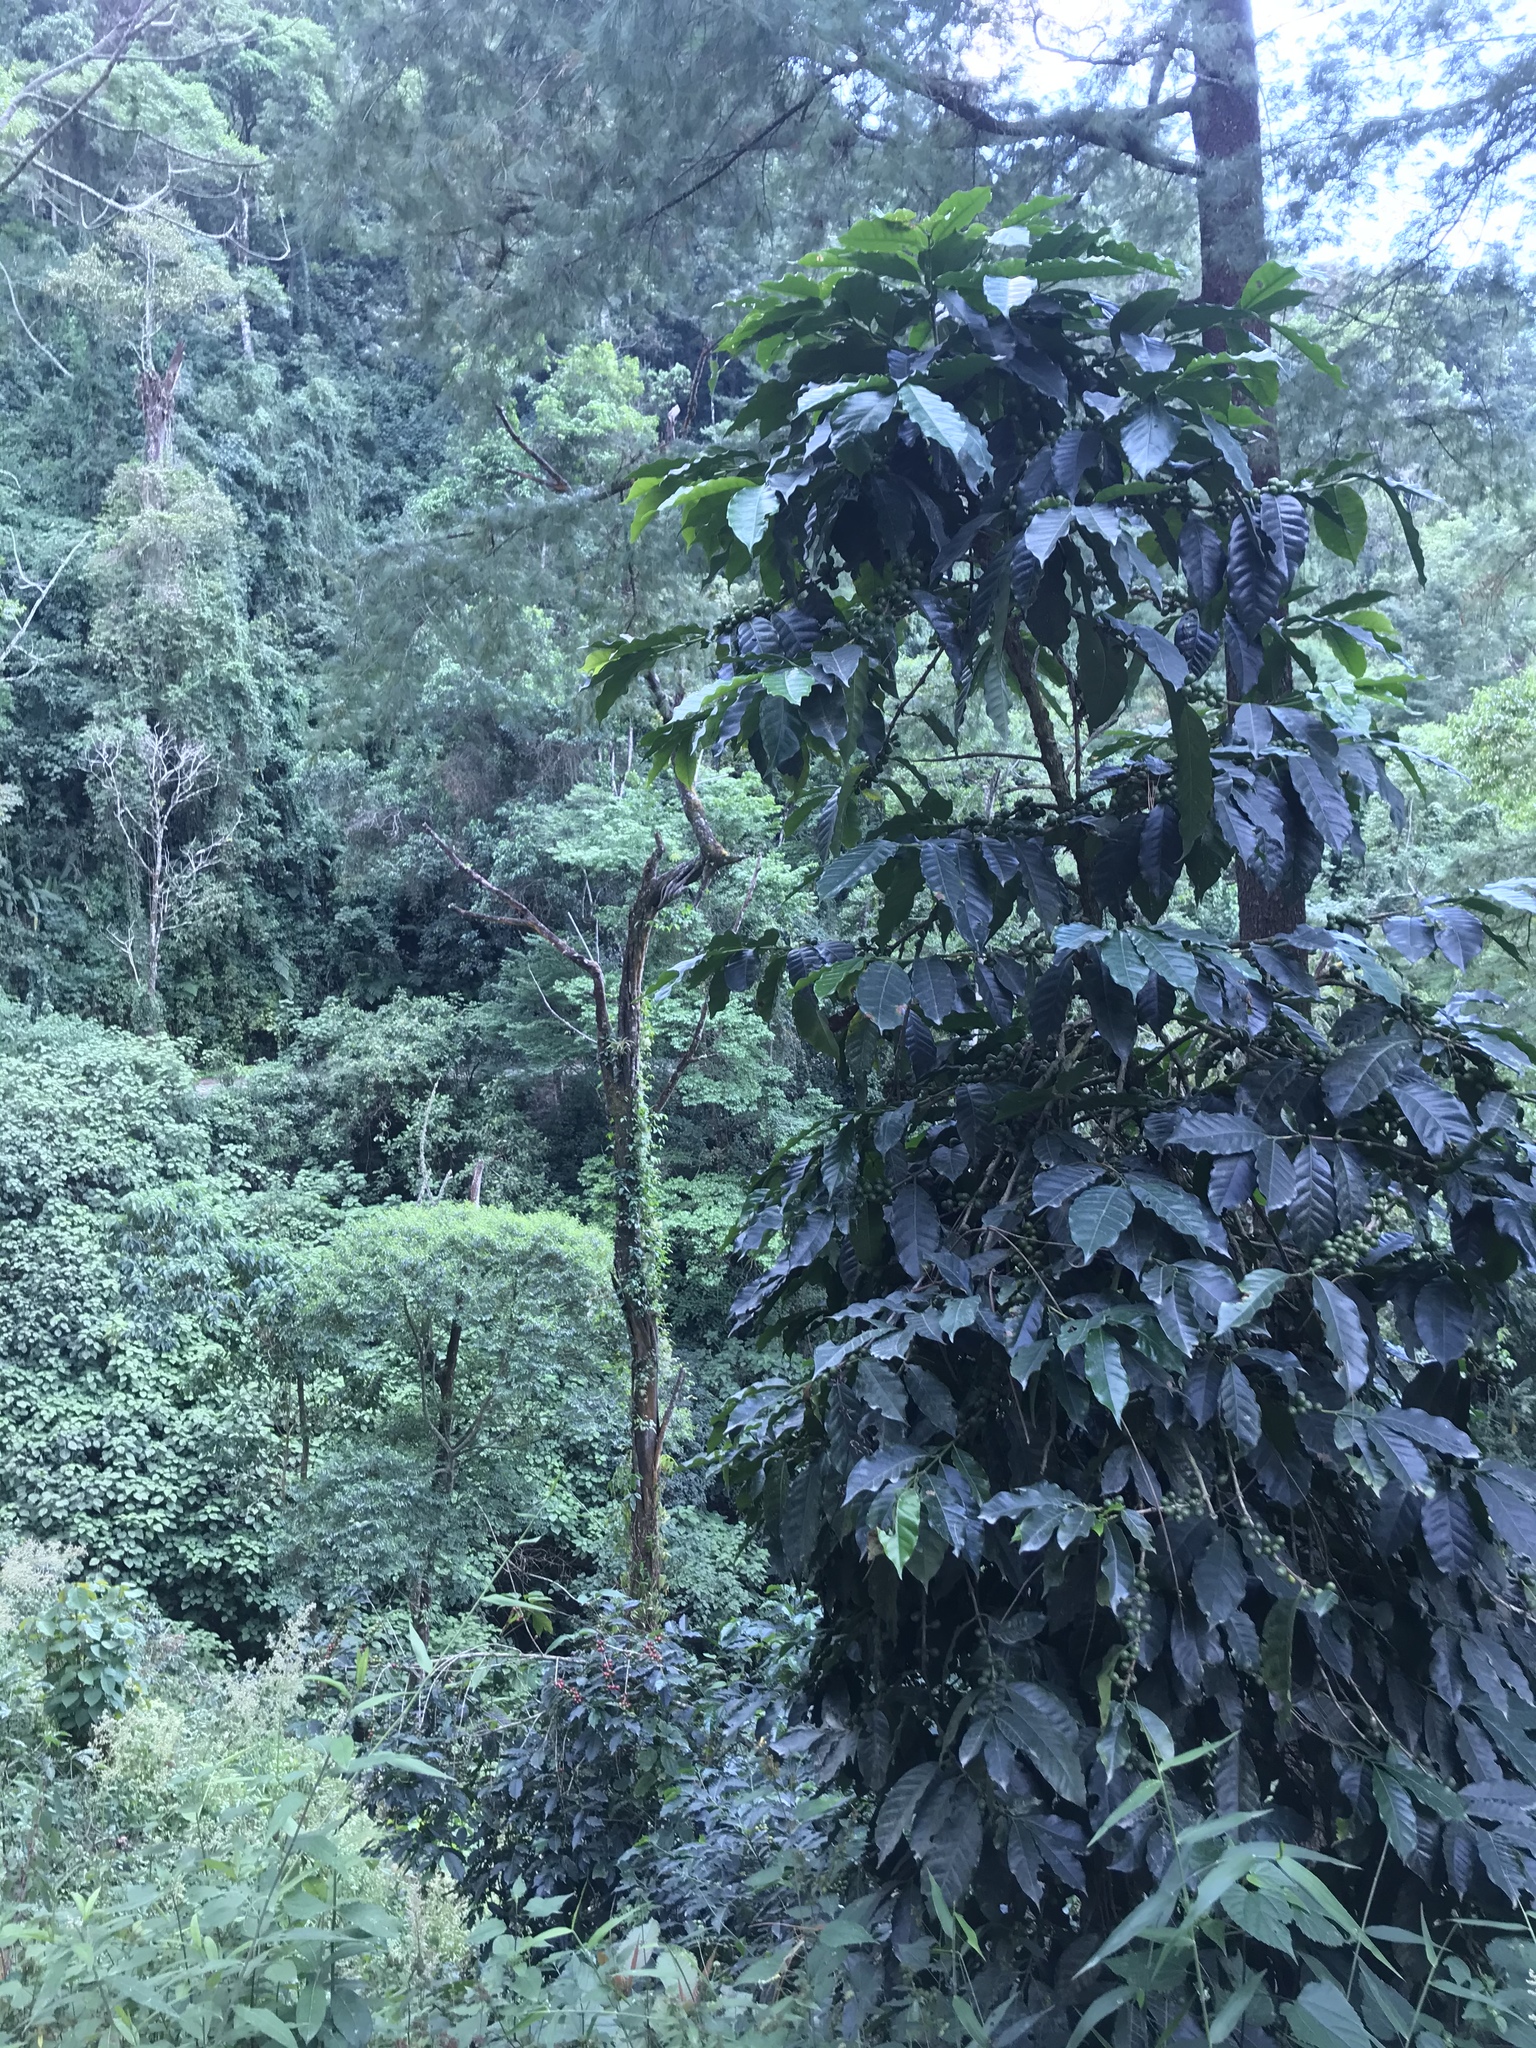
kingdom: Plantae
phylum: Tracheophyta
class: Magnoliopsida
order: Gentianales
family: Rubiaceae
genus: Coffea
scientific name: Coffea arabica
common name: Coffee
